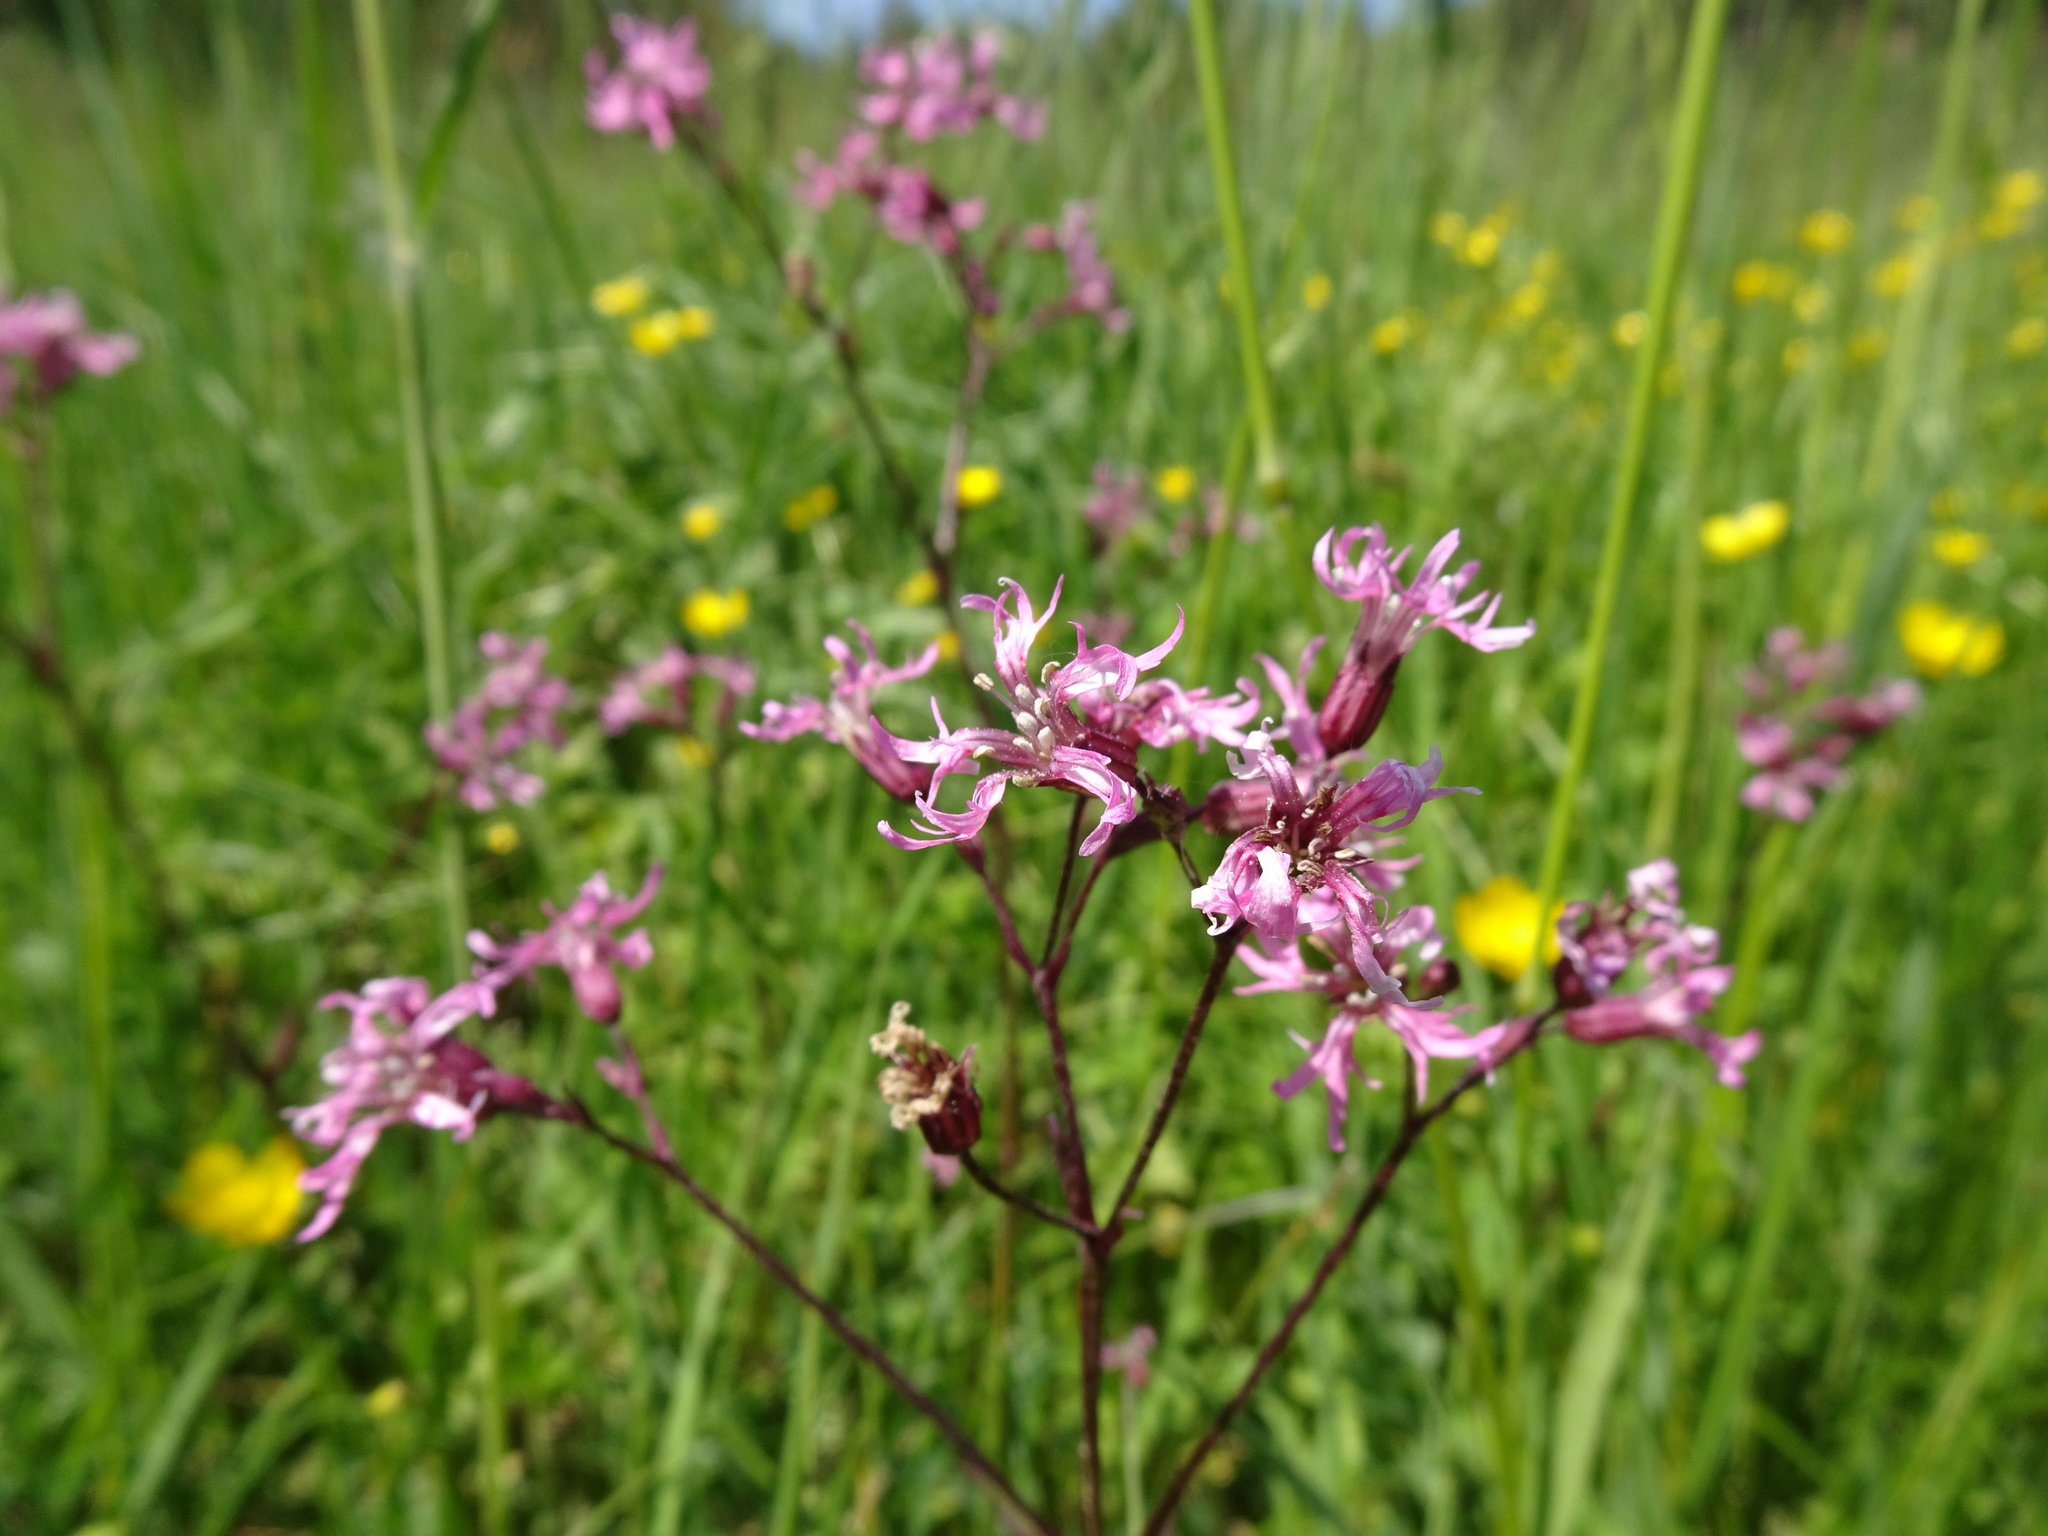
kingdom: Plantae
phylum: Tracheophyta
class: Magnoliopsida
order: Caryophyllales
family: Caryophyllaceae
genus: Silene
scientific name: Silene flos-cuculi
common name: Ragged-robin
